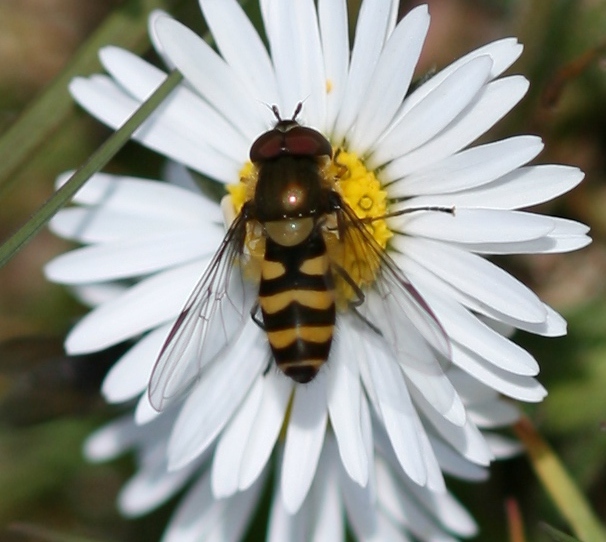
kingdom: Animalia
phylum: Arthropoda
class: Insecta
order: Diptera
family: Syrphidae
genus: Parasyrphus
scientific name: Parasyrphus lineolus
